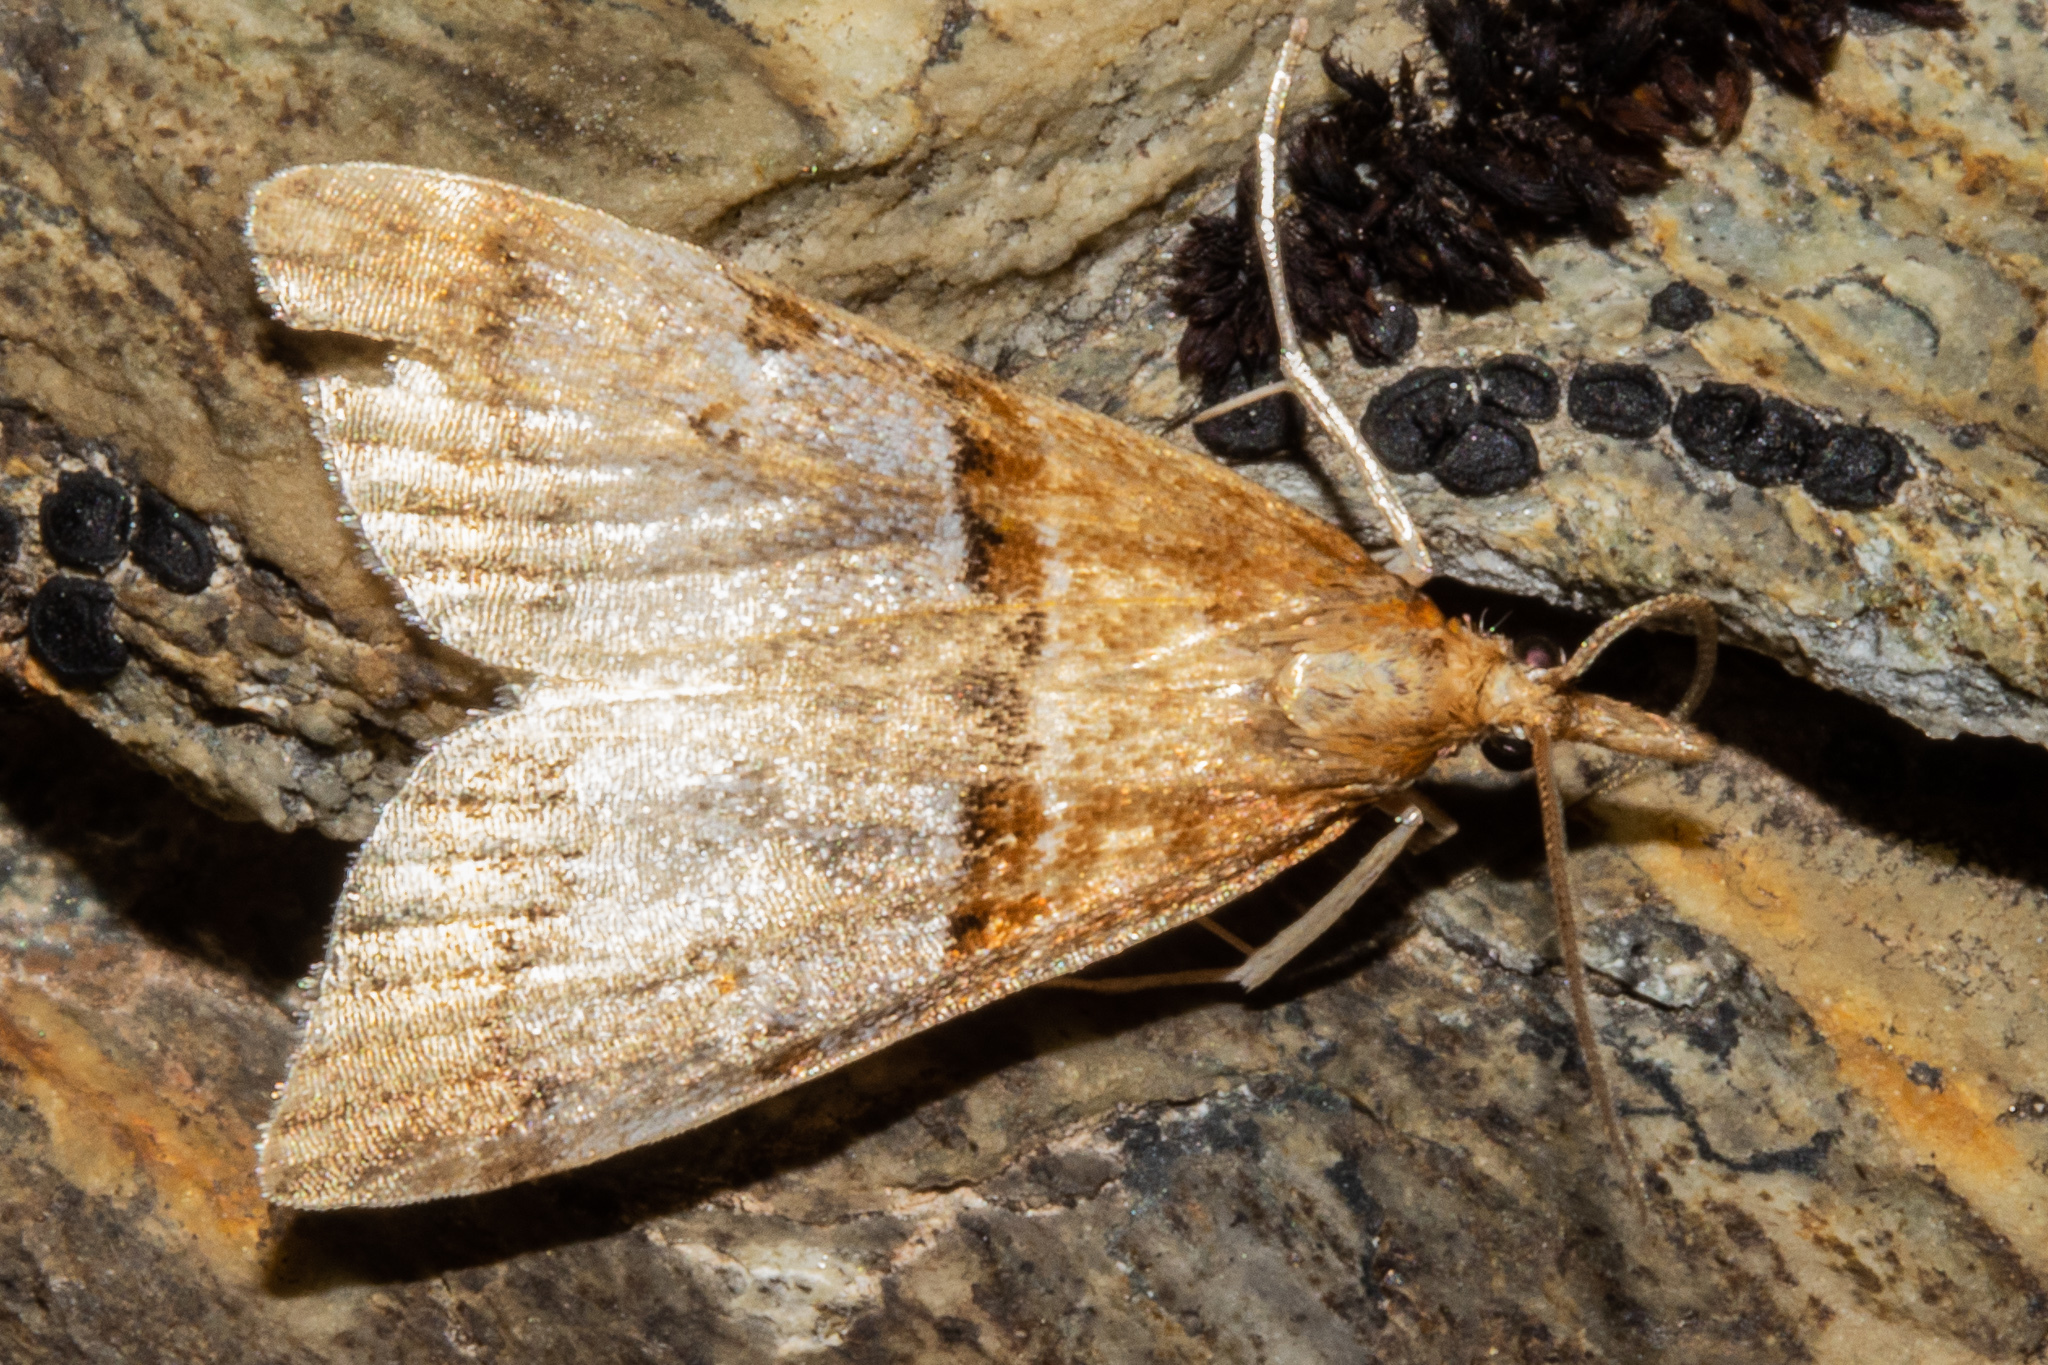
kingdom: Animalia
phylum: Arthropoda
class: Insecta
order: Lepidoptera
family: Crambidae
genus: Antiscopa
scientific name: Antiscopa acompa
